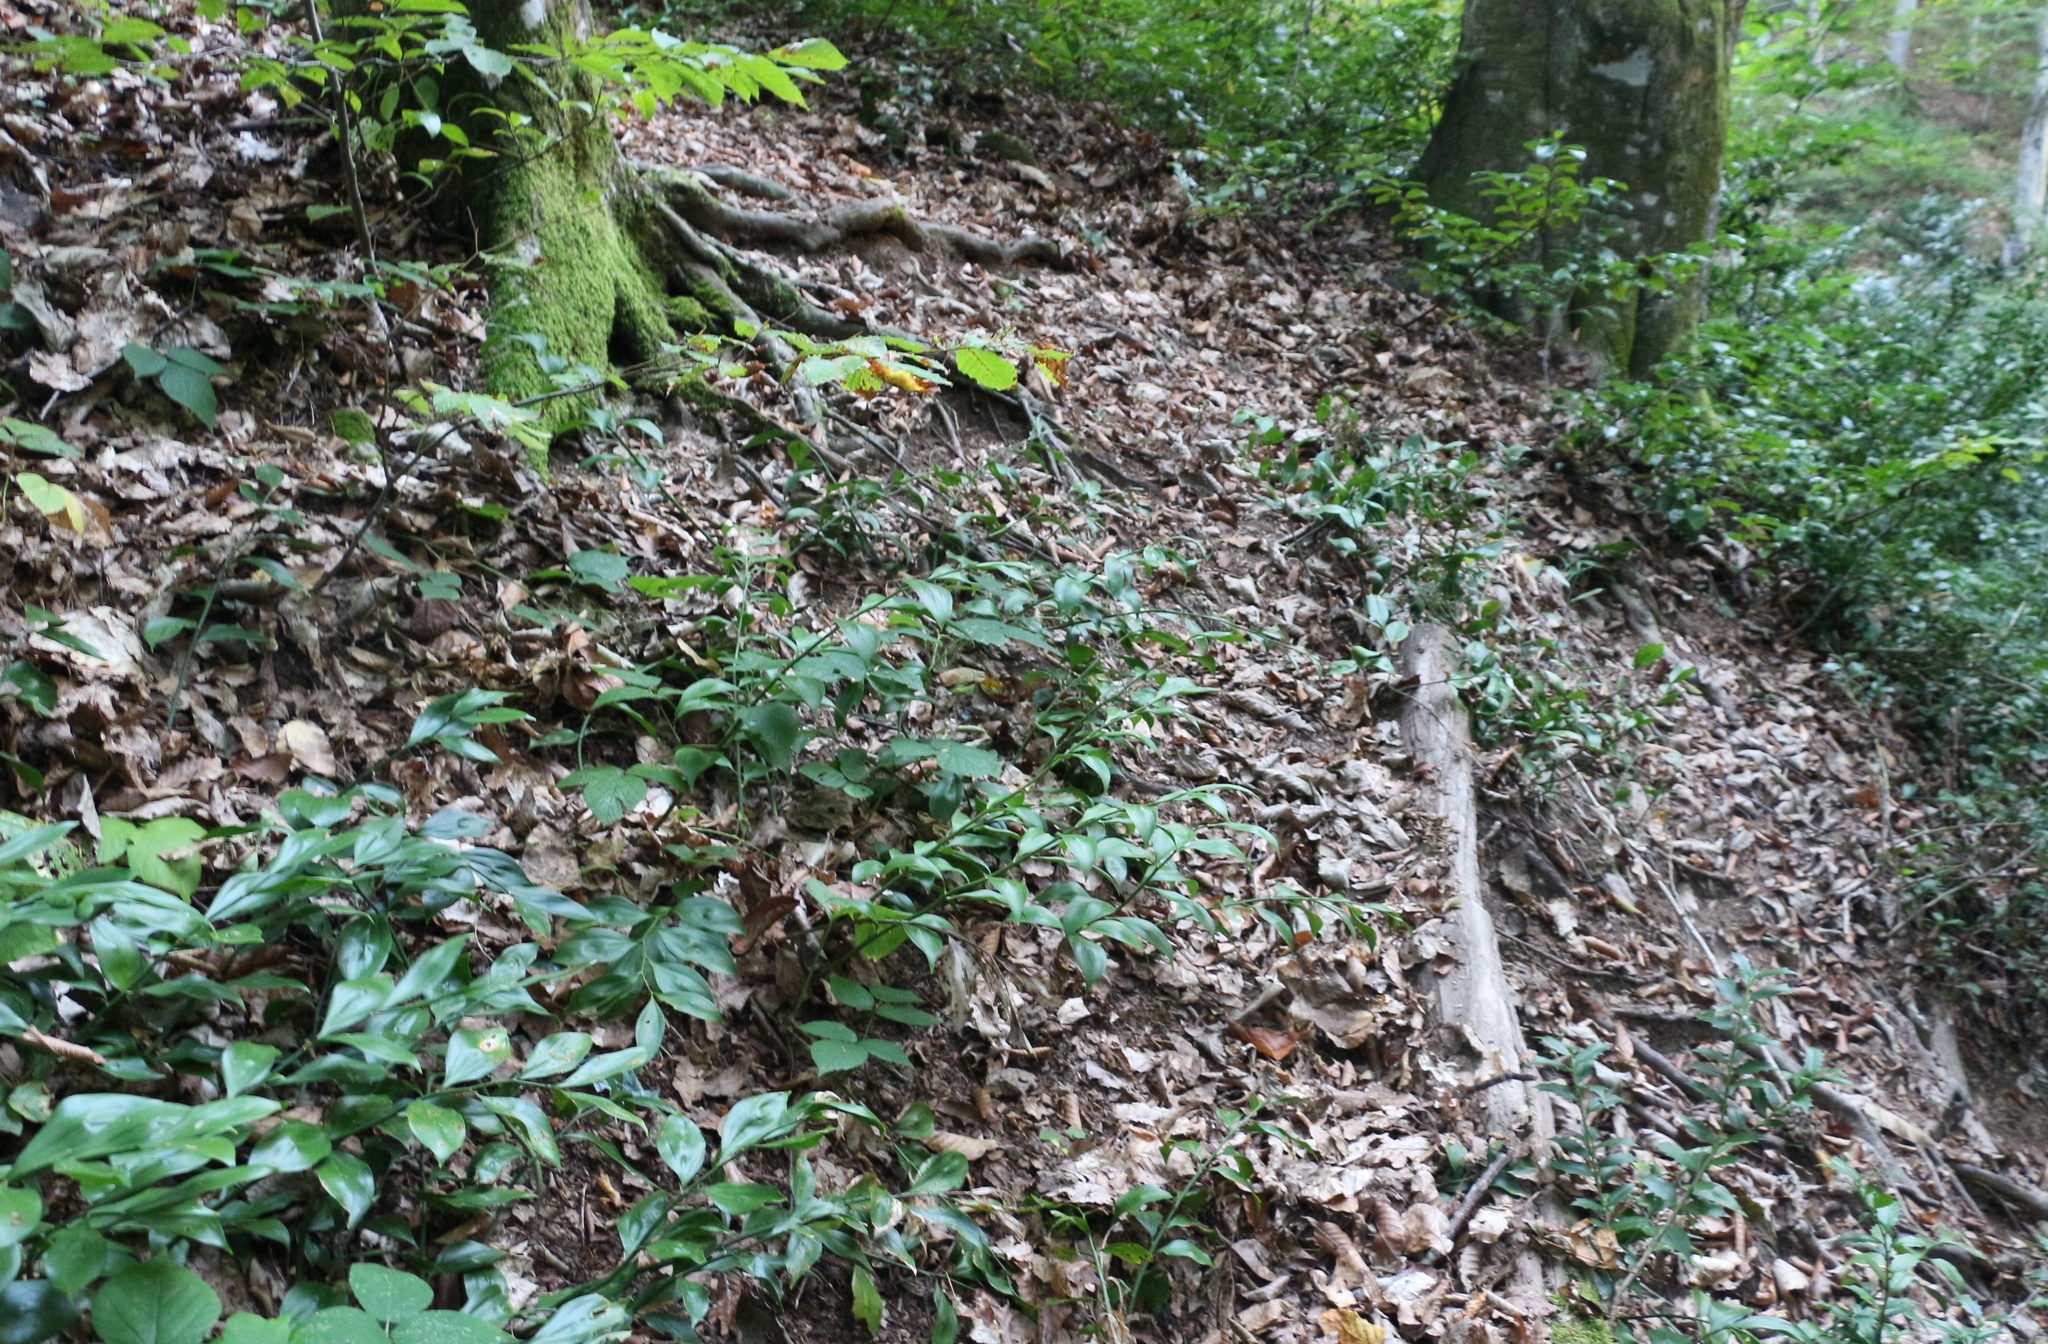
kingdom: Plantae
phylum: Tracheophyta
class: Liliopsida
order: Asparagales
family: Asparagaceae
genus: Ruscus
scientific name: Ruscus colchicus
